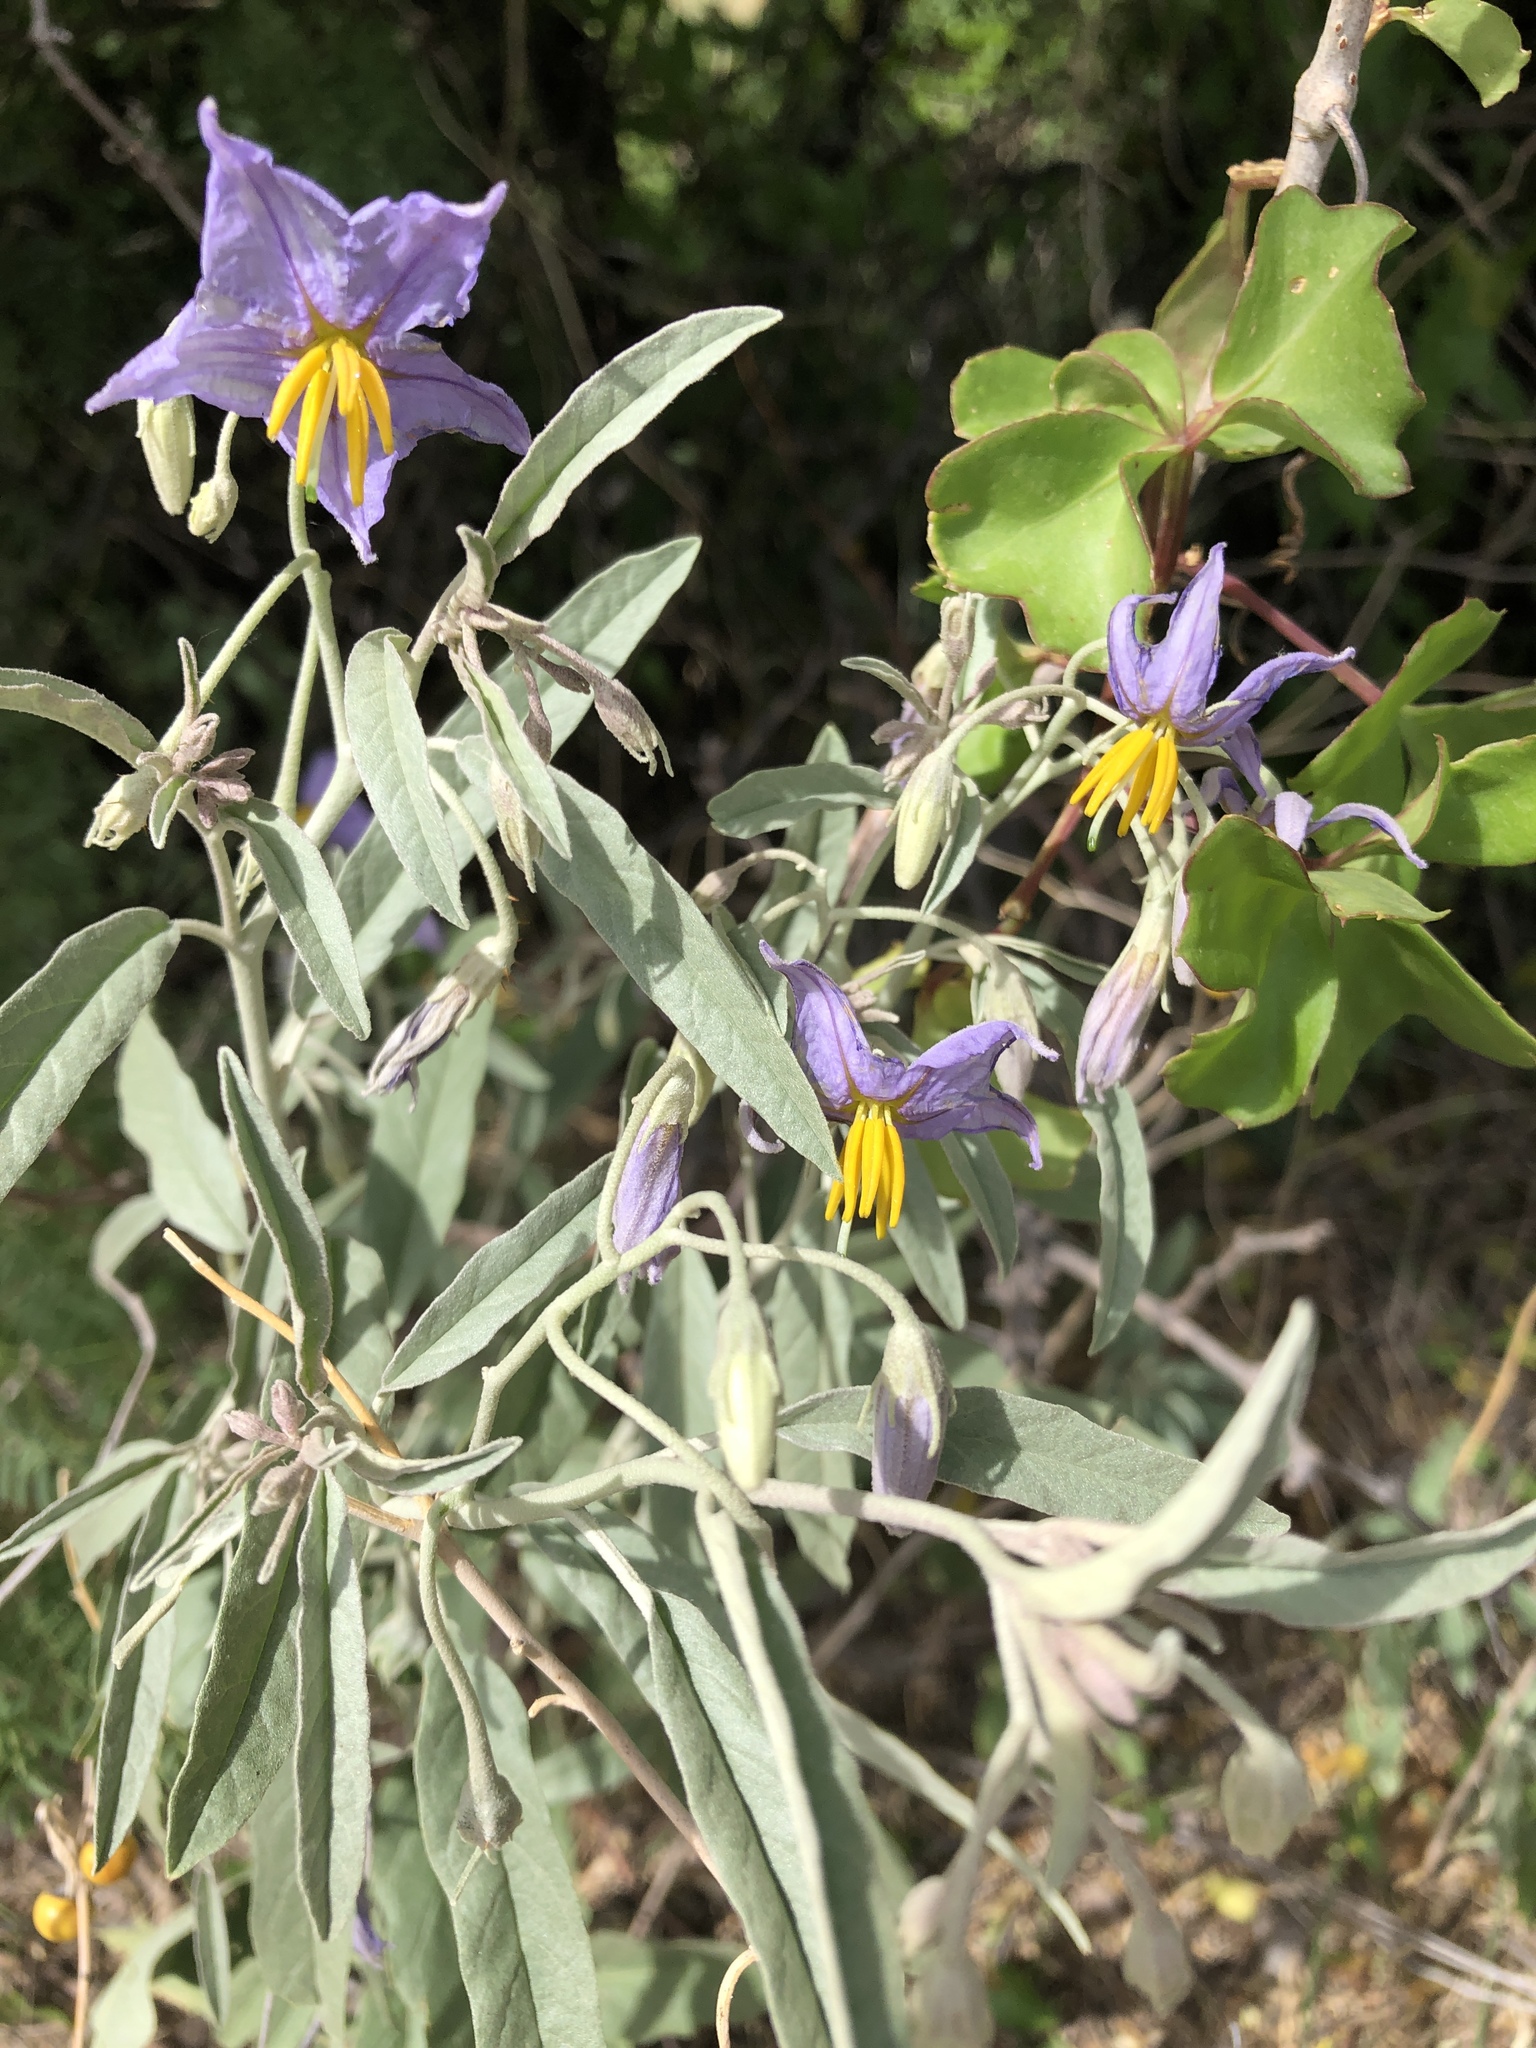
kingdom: Plantae
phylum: Tracheophyta
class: Magnoliopsida
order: Solanales
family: Solanaceae
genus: Solanum
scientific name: Solanum elaeagnifolium
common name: Silverleaf nightshade
